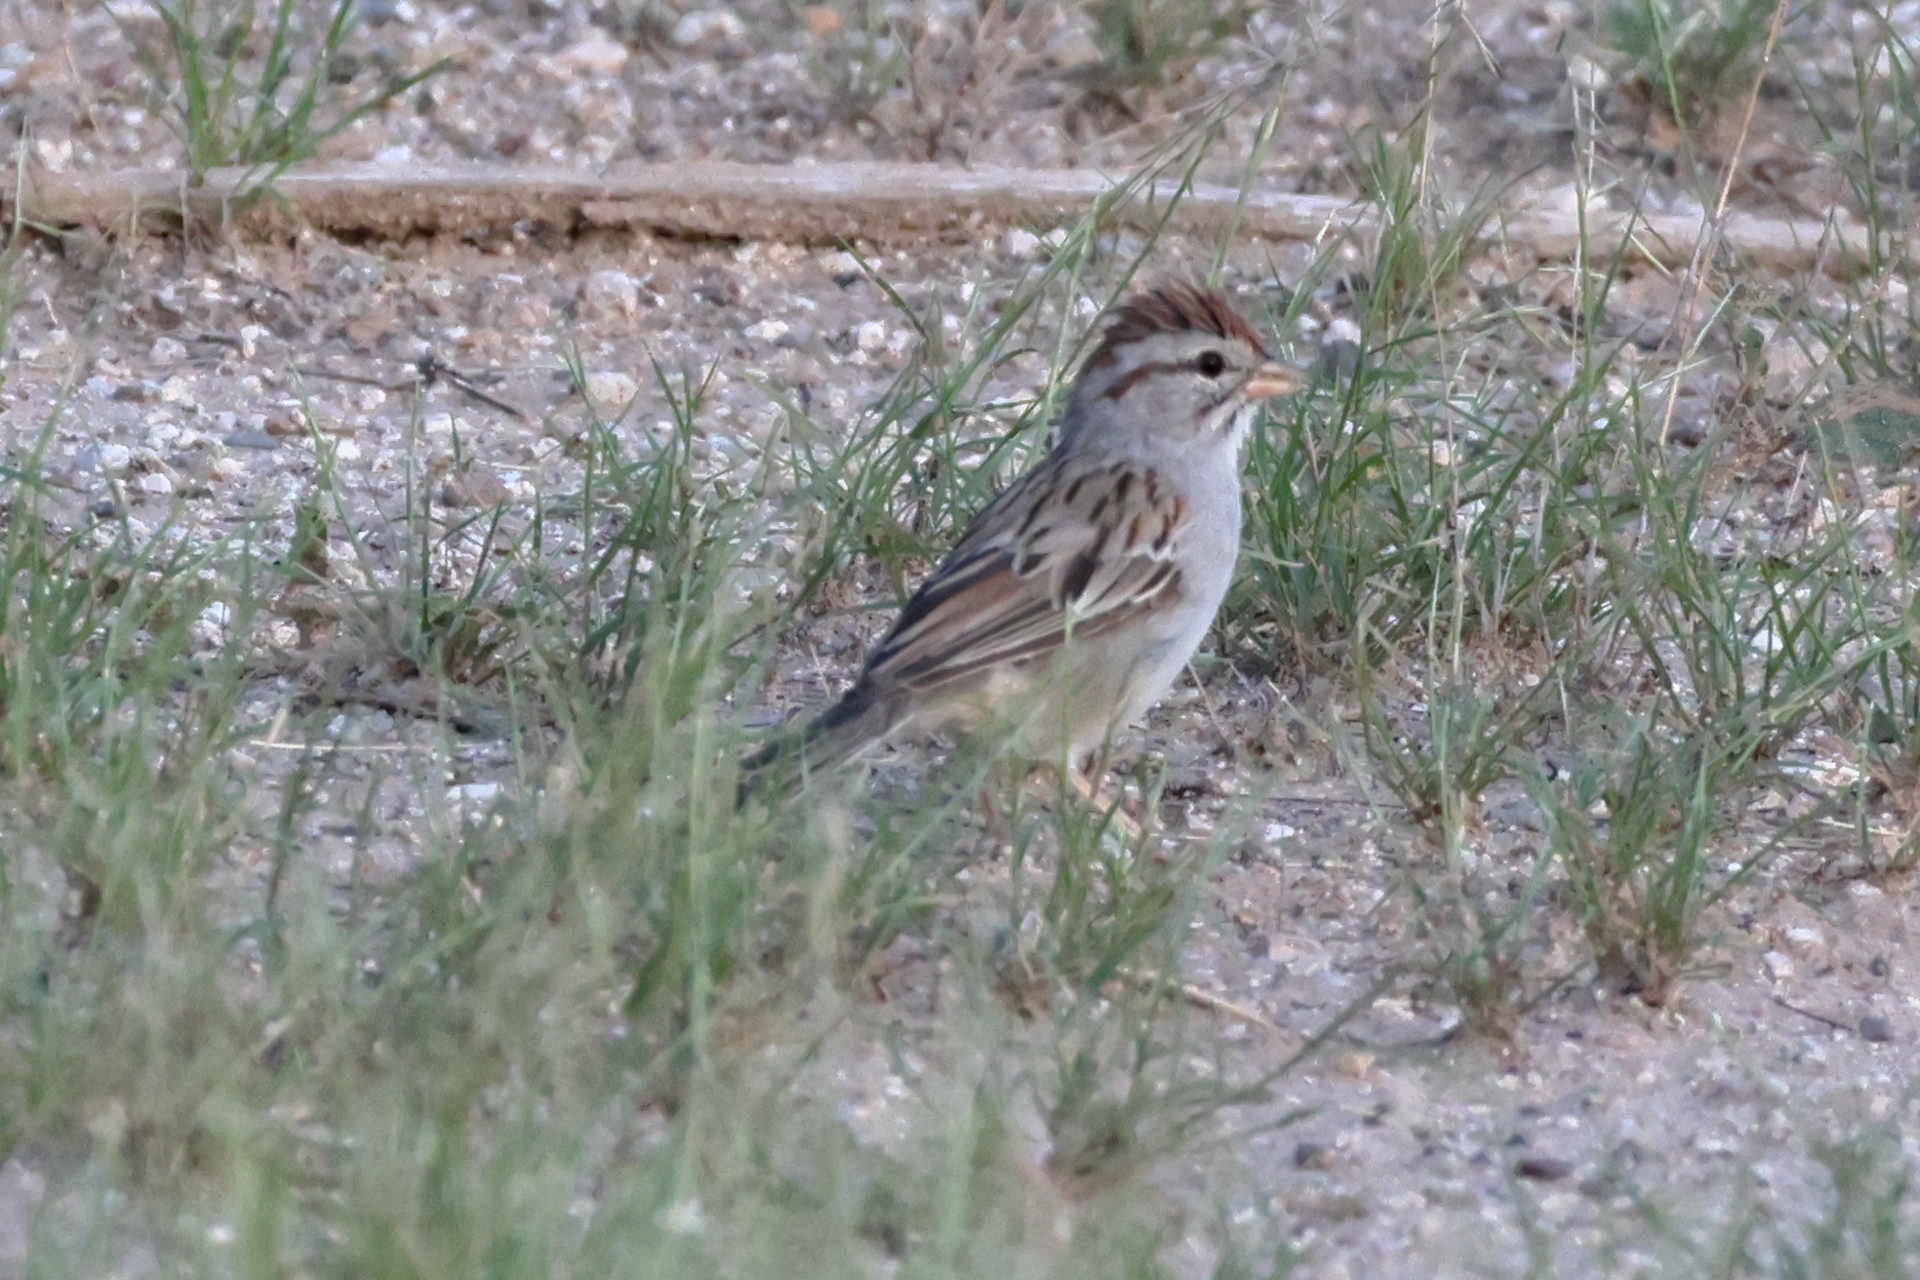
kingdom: Animalia
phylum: Chordata
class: Aves
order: Passeriformes
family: Passerellidae
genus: Peucaea
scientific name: Peucaea carpalis
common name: Rufous-winged sparrow
